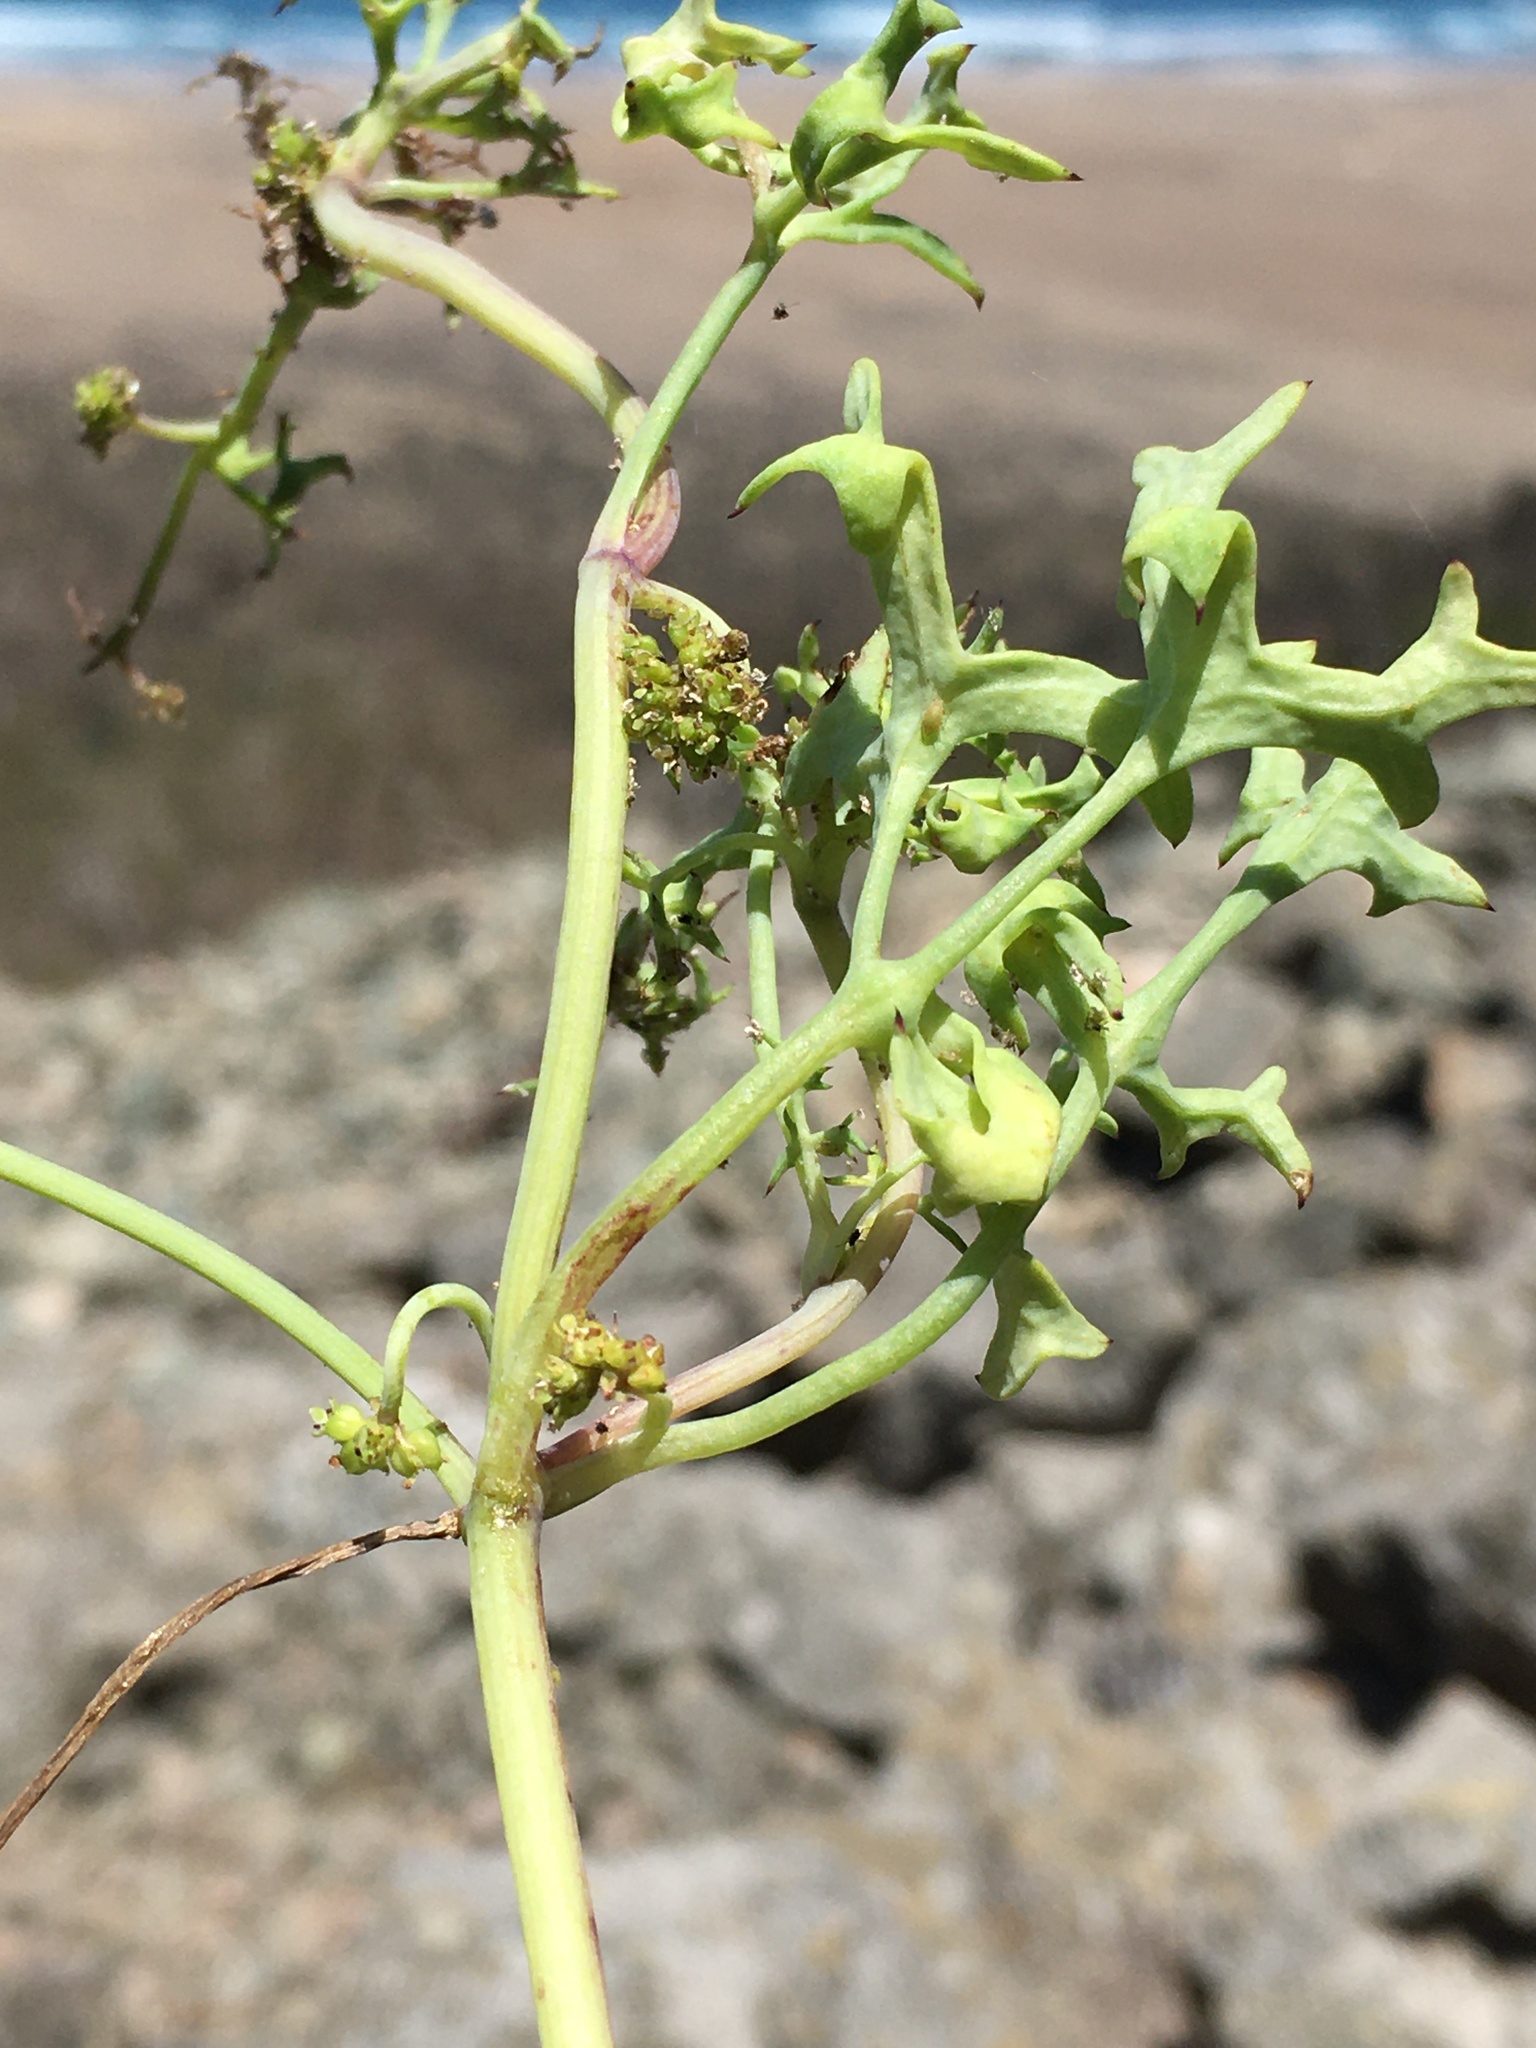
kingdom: Plantae
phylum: Tracheophyta
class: Magnoliopsida
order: Apiales
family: Apiaceae
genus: Domeykoa
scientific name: Domeykoa oppositifolia
